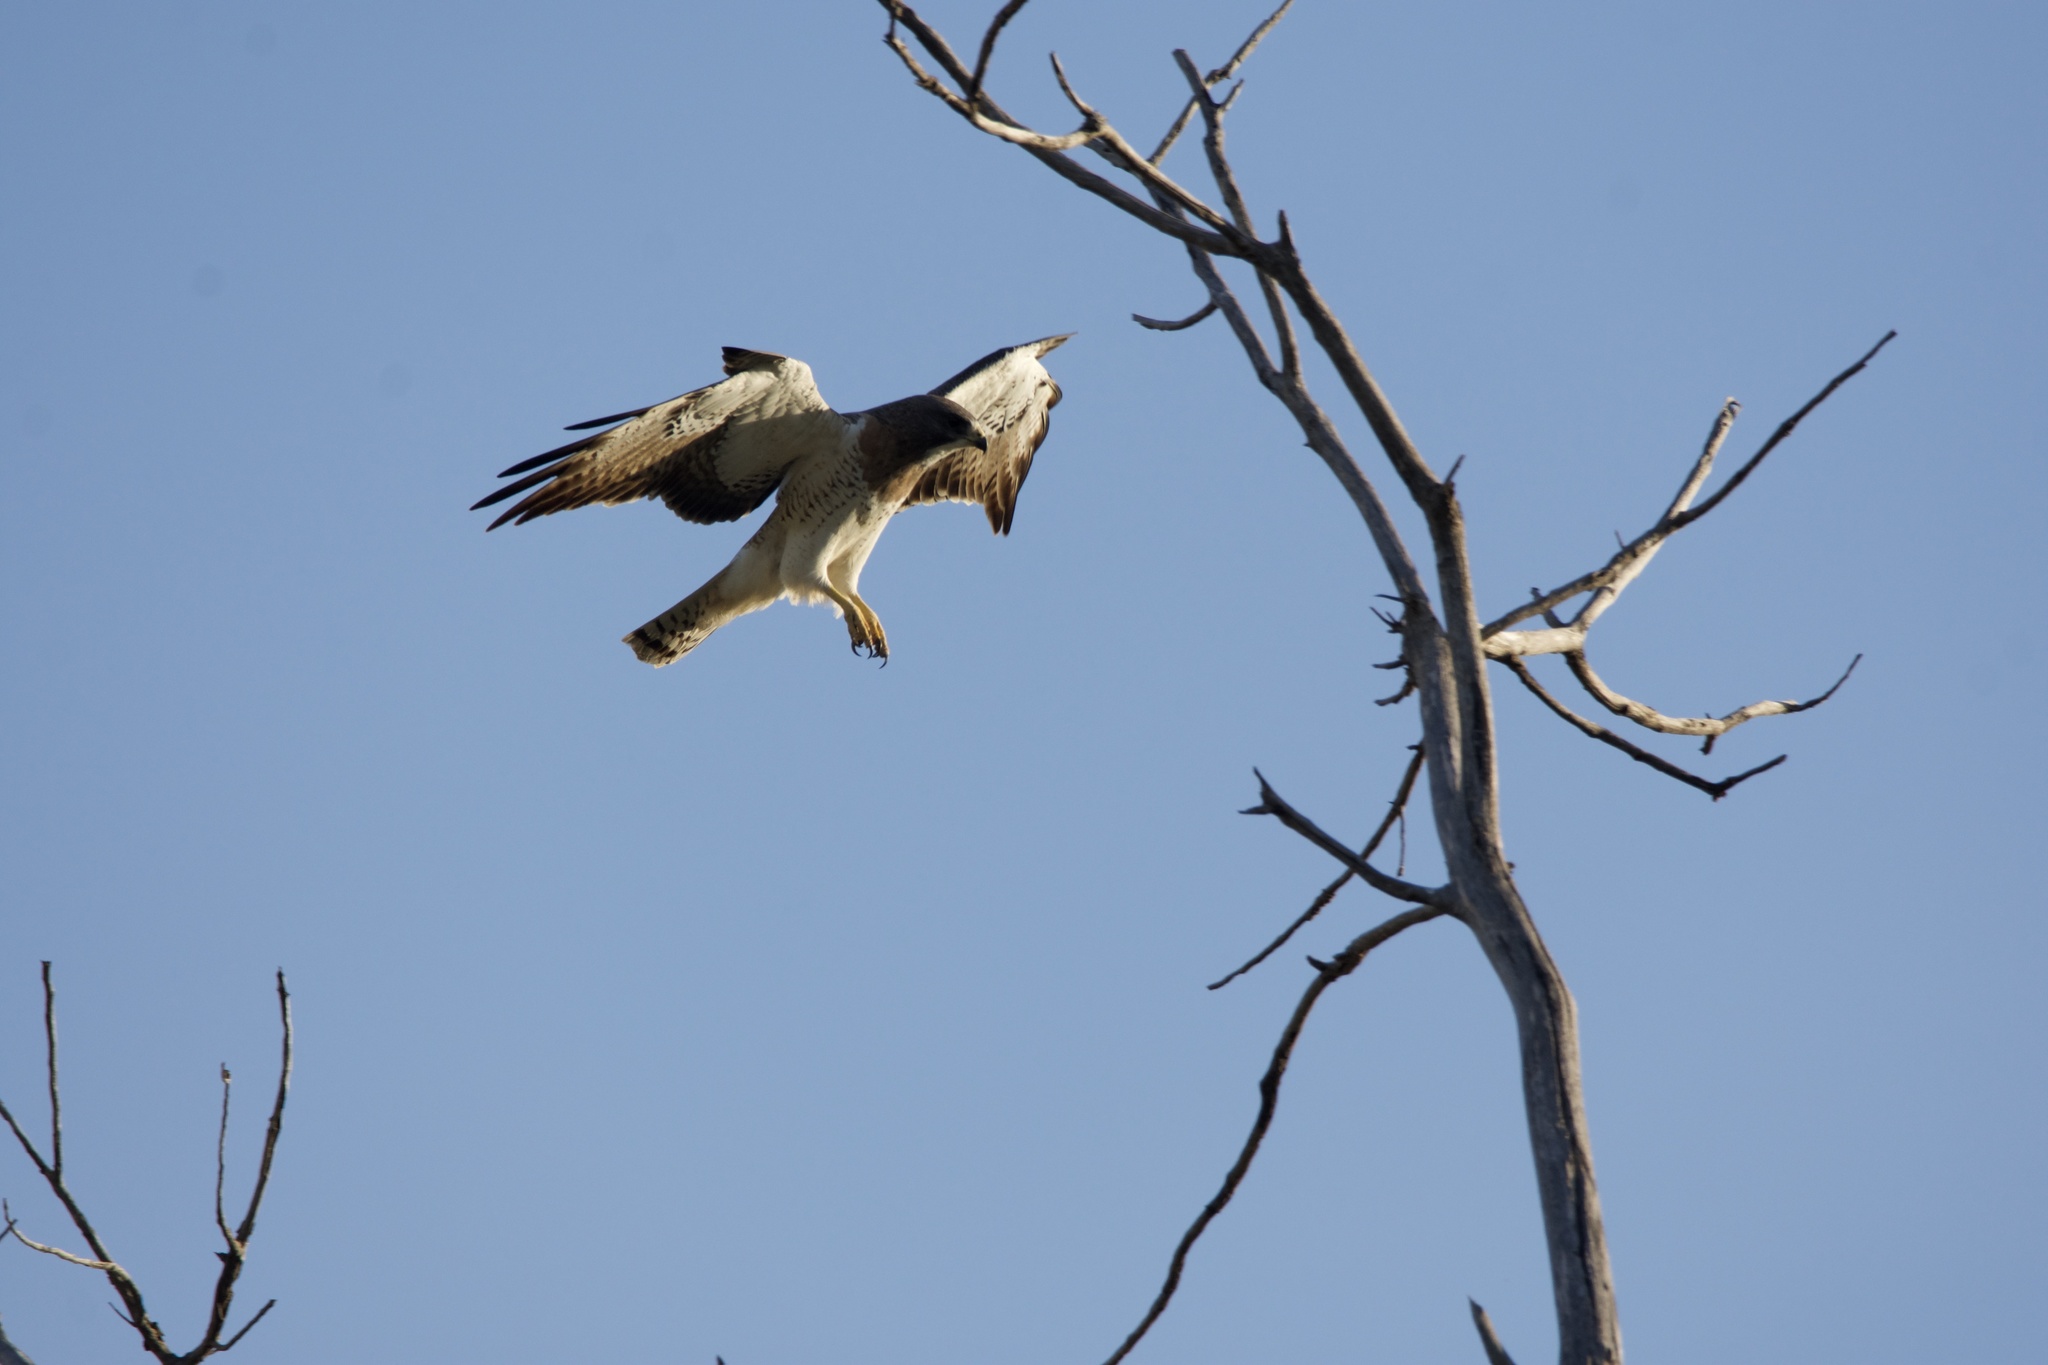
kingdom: Animalia
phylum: Chordata
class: Aves
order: Accipitriformes
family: Accipitridae
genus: Buteo
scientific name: Buteo swainsoni
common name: Swainson's hawk
